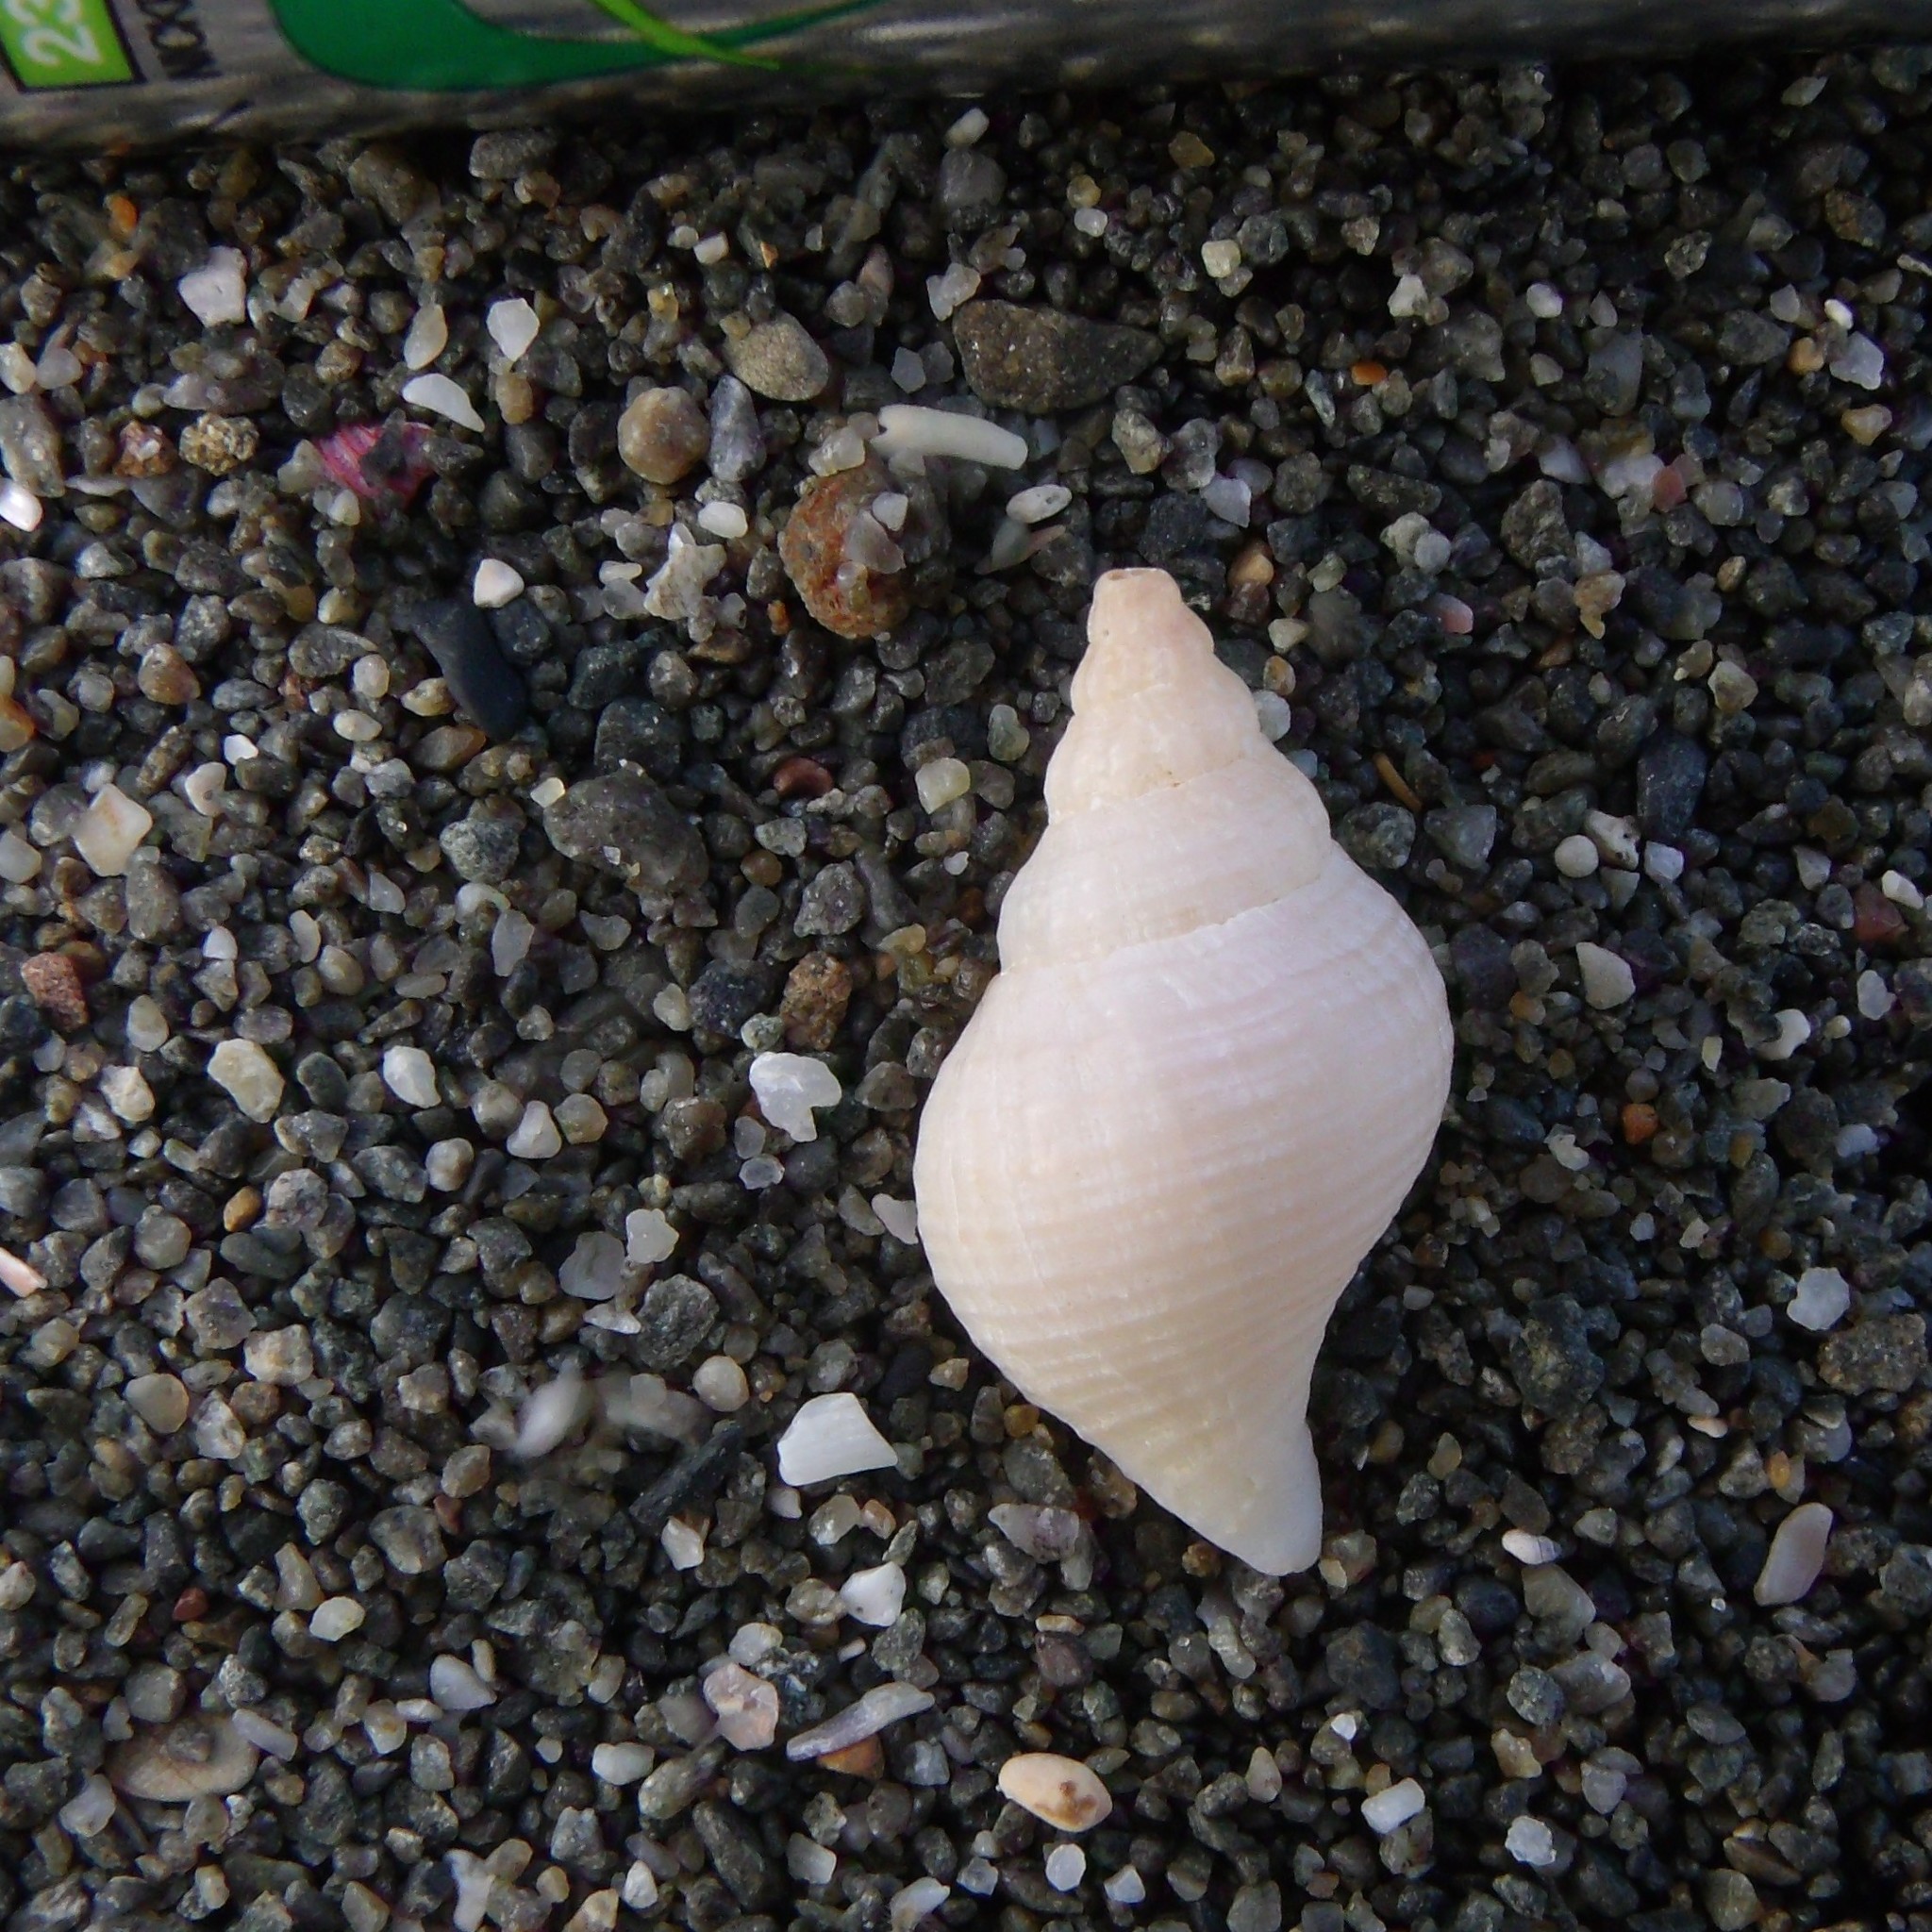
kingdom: Animalia
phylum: Mollusca
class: Gastropoda
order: Neogastropoda
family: Tudiclidae
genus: Buccinulum
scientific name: Buccinulum linea
